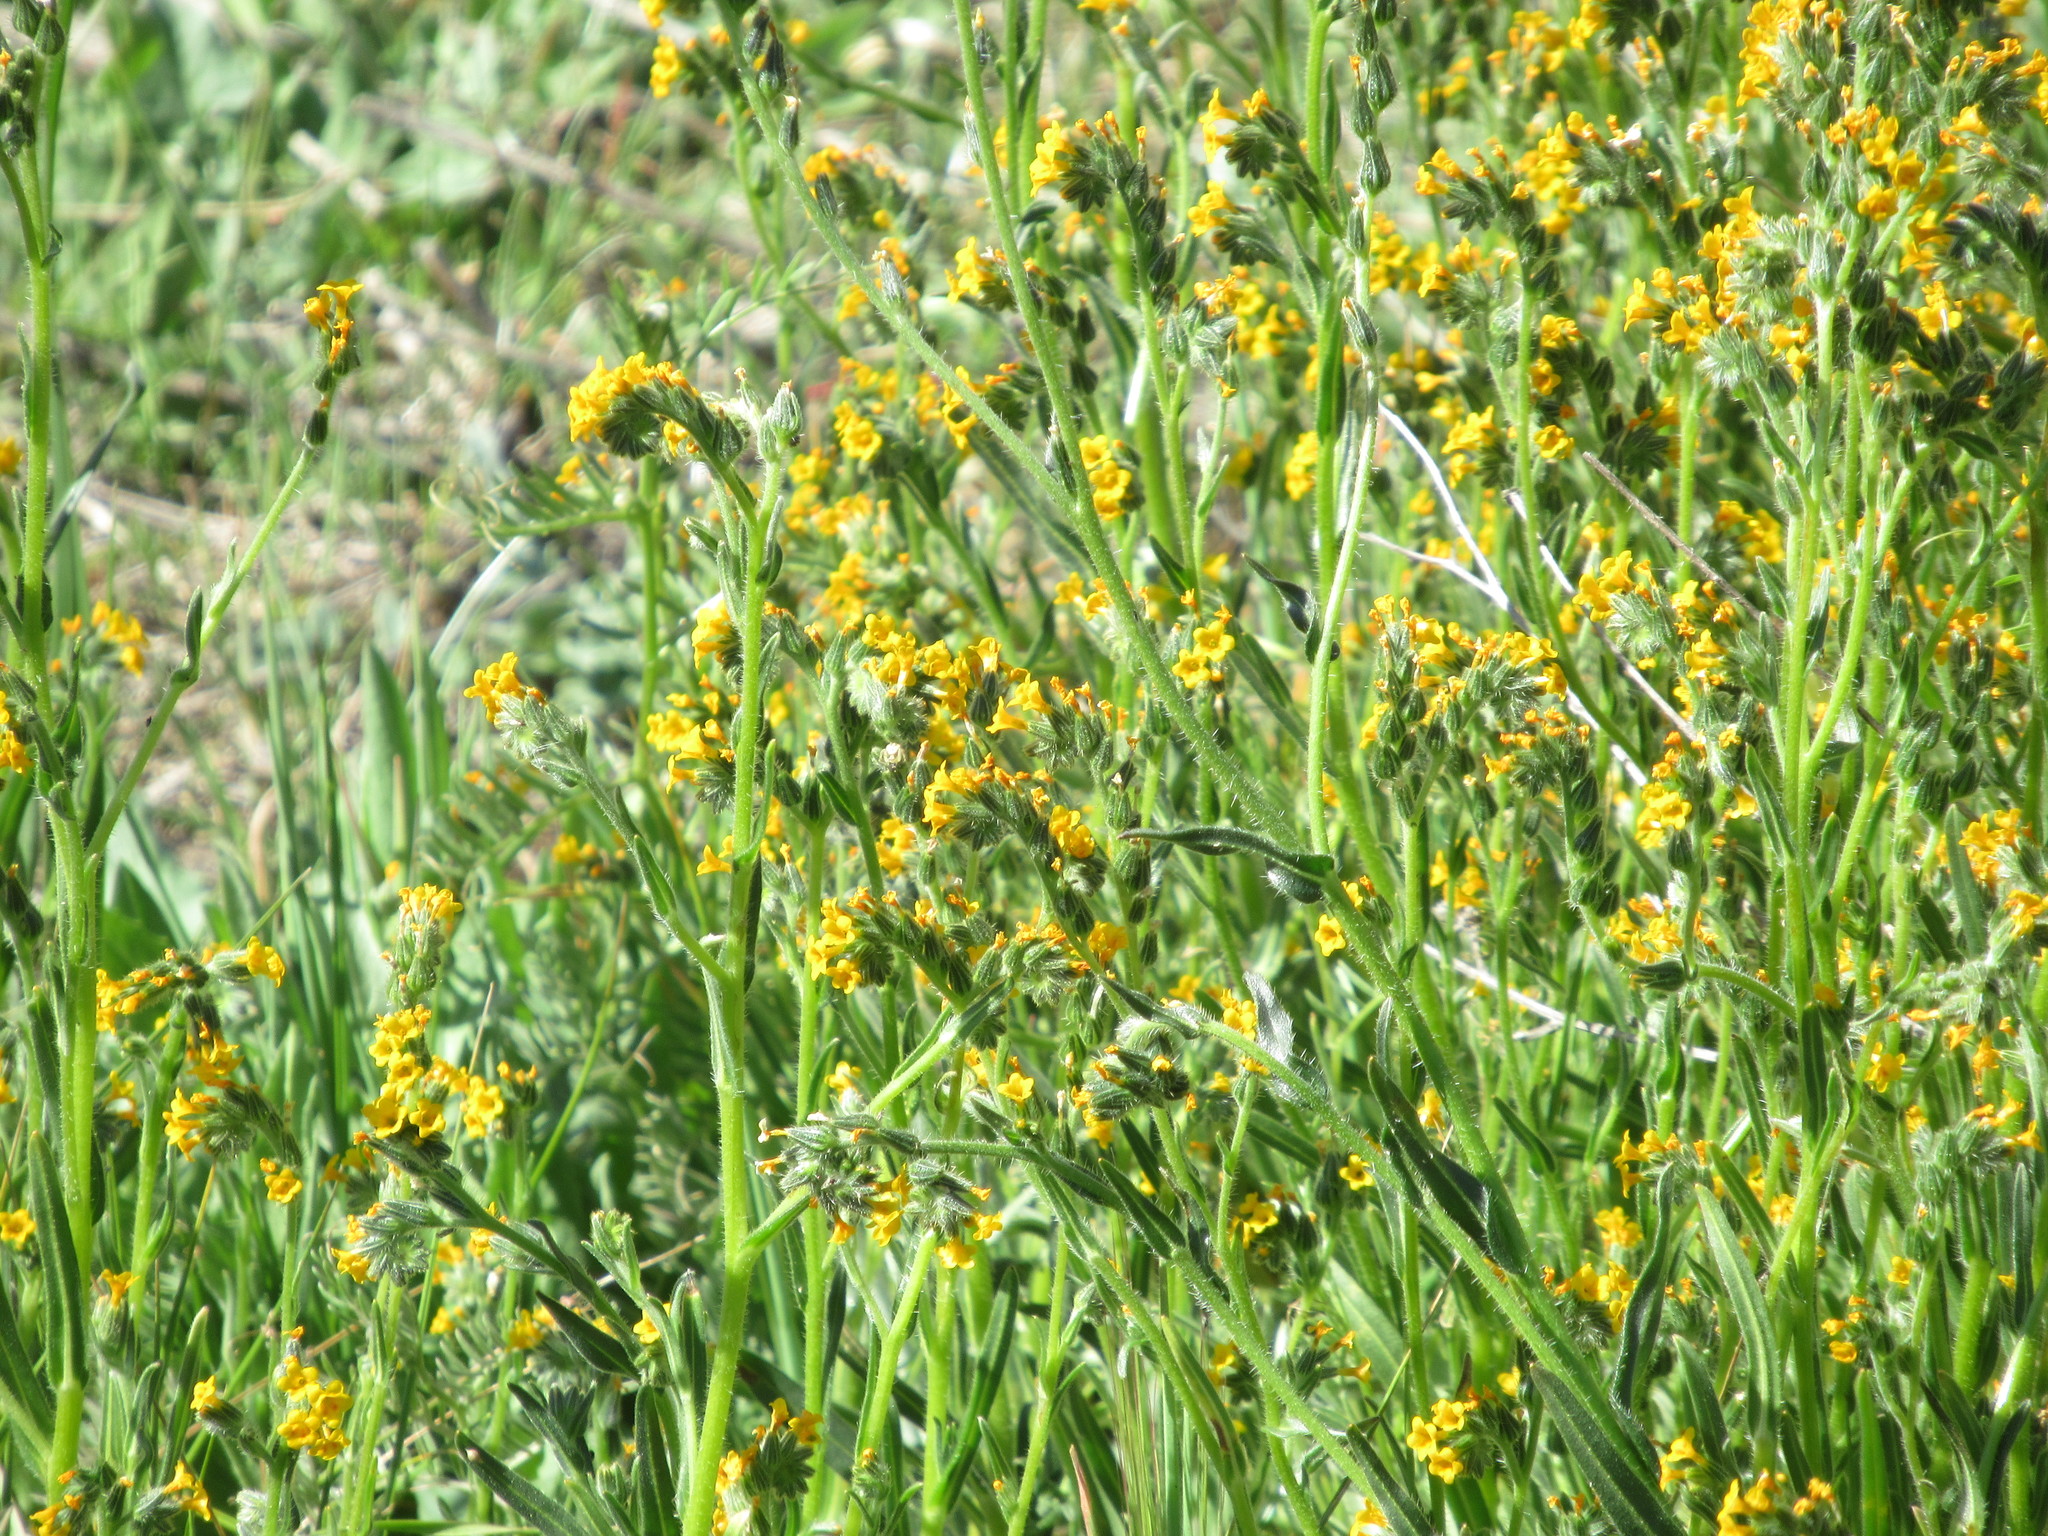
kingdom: Plantae
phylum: Tracheophyta
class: Magnoliopsida
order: Boraginales
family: Boraginaceae
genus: Amsinckia
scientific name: Amsinckia menziesii
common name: Menzies' fiddleneck
